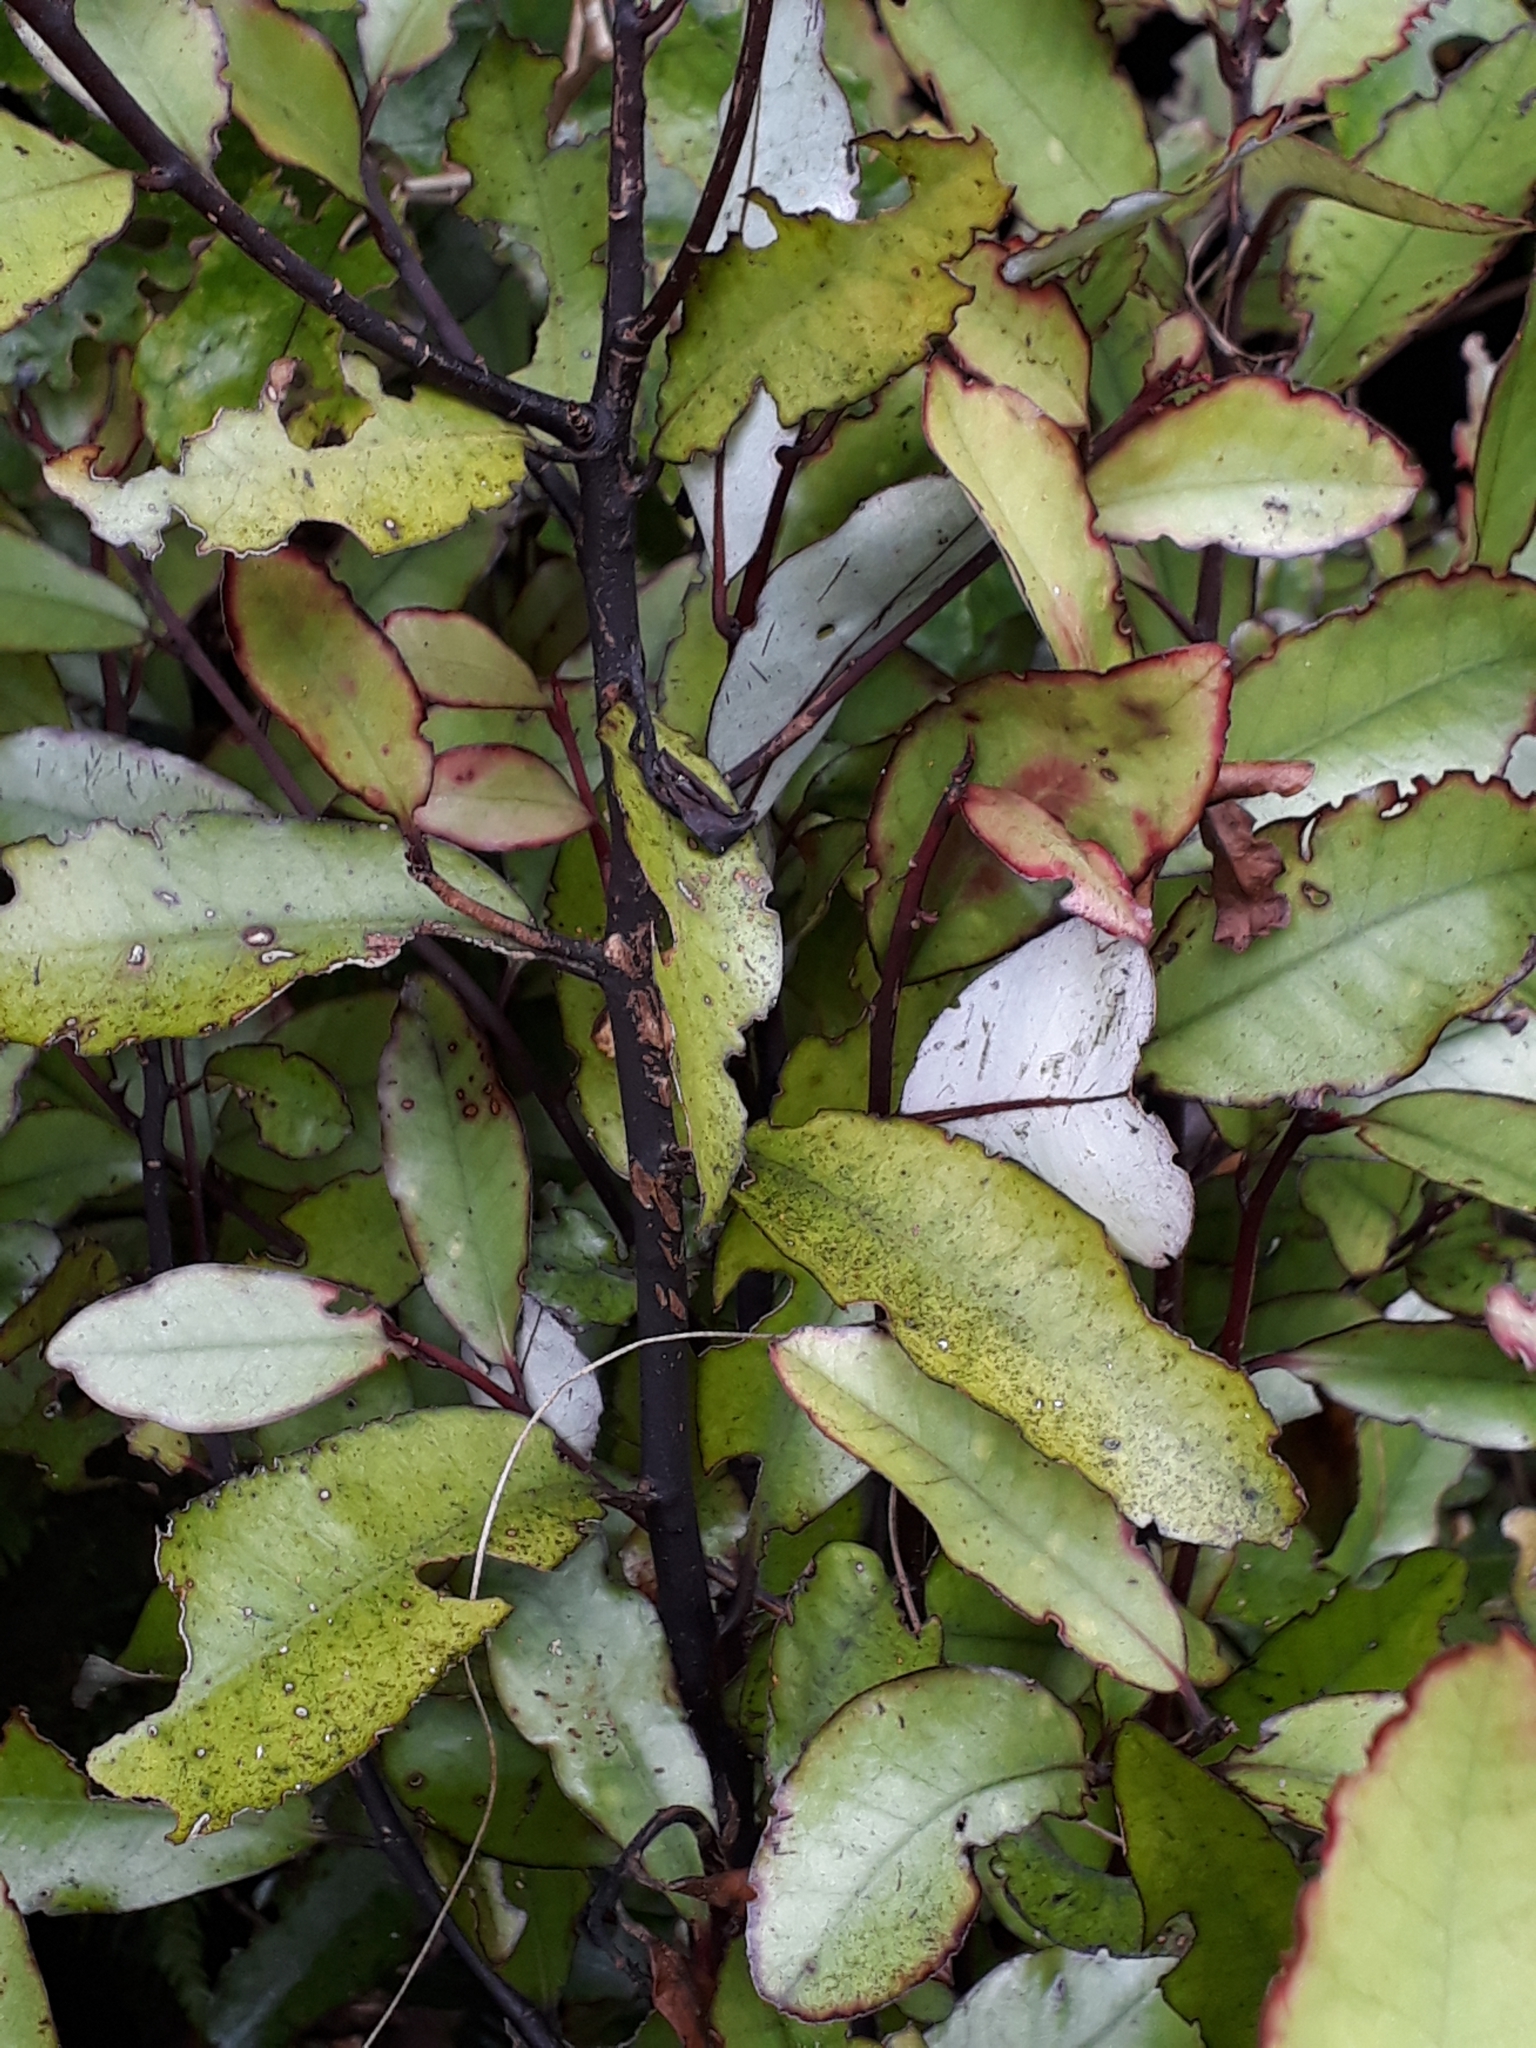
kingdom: Plantae
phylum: Tracheophyta
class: Magnoliopsida
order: Canellales
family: Winteraceae
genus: Pseudowintera
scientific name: Pseudowintera colorata
